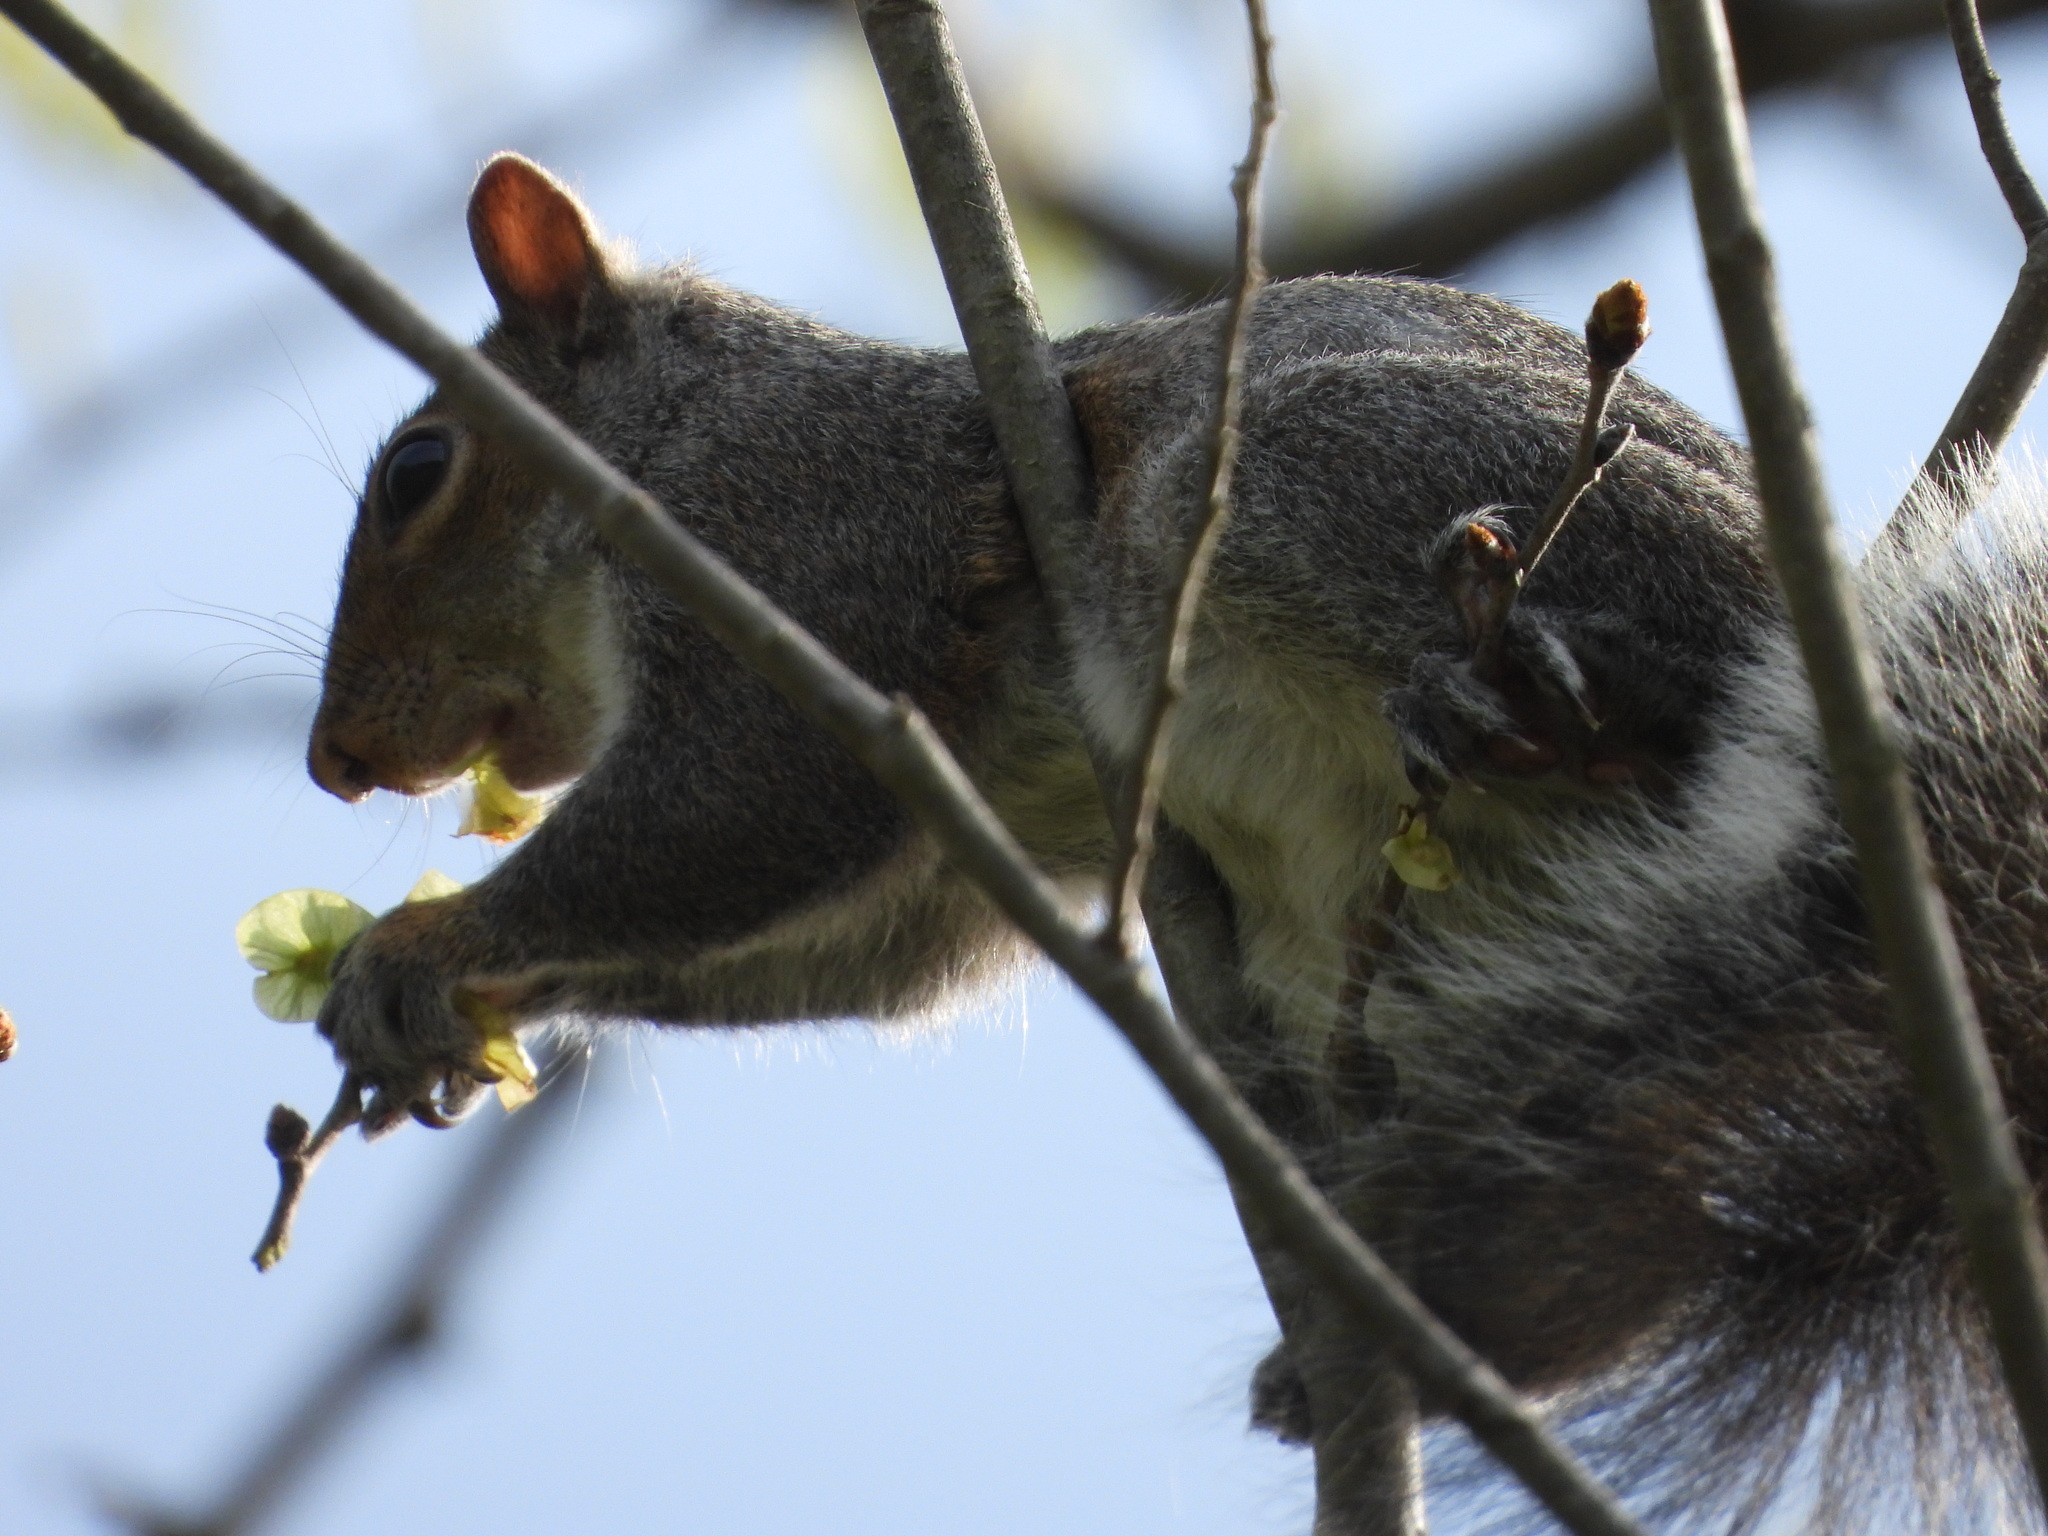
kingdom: Animalia
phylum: Chordata
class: Mammalia
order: Rodentia
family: Sciuridae
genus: Sciurus
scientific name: Sciurus carolinensis
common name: Eastern gray squirrel
